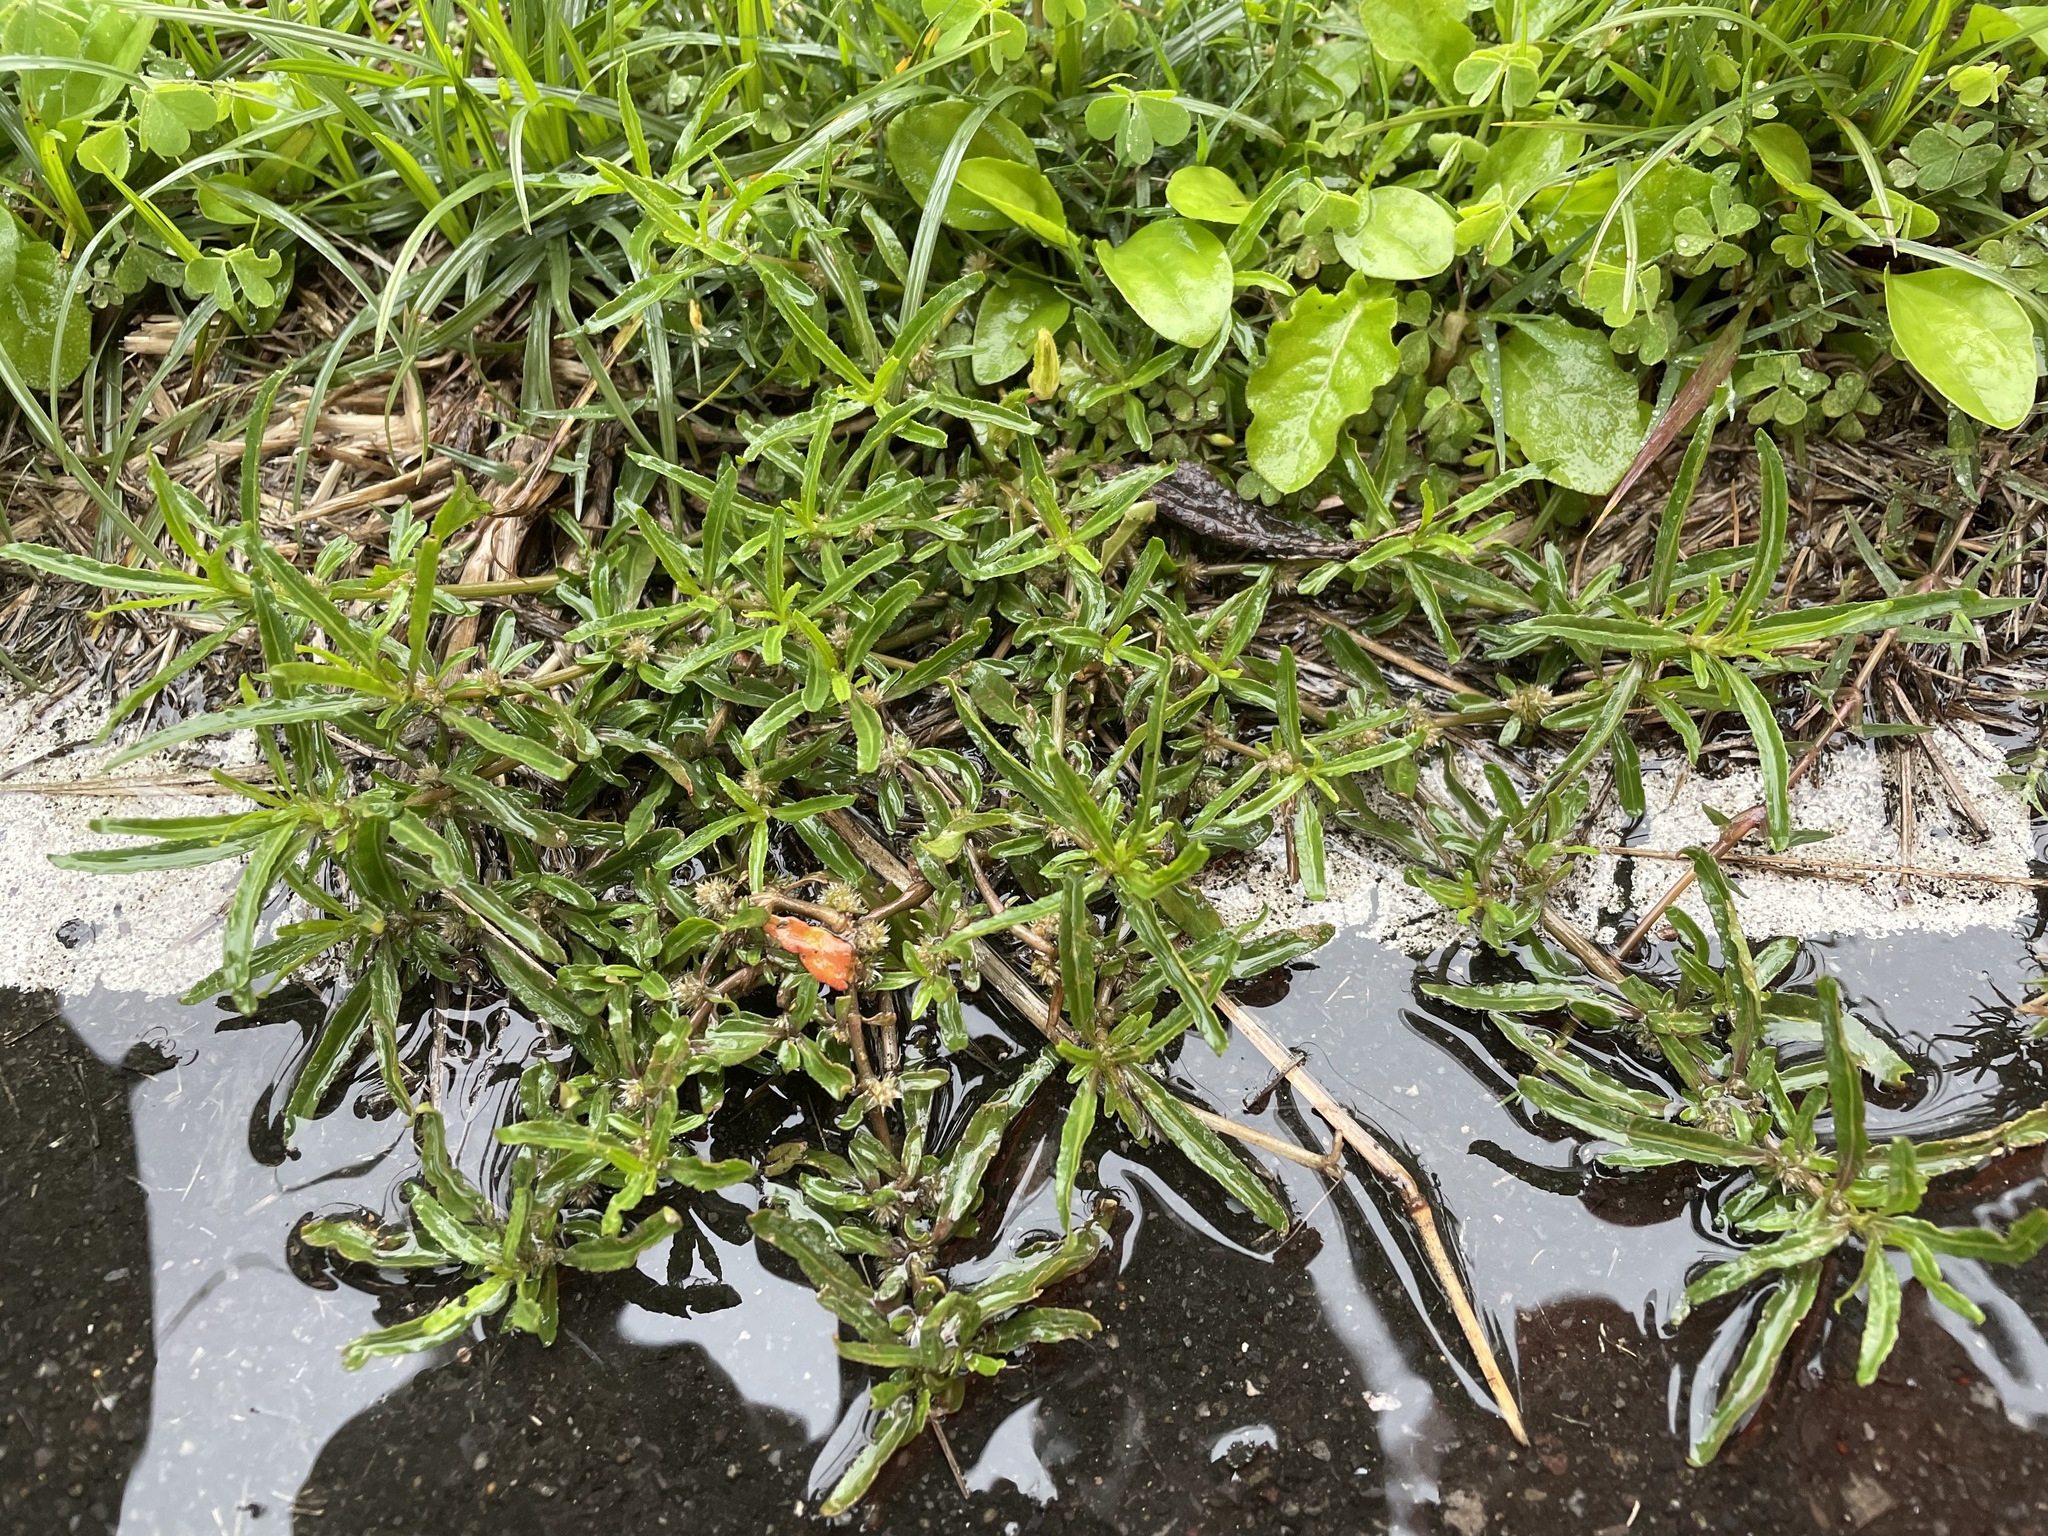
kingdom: Plantae
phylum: Tracheophyta
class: Magnoliopsida
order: Caryophyllales
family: Amaranthaceae
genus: Alternanthera
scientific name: Alternanthera sessilis
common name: Sessile joyweed
